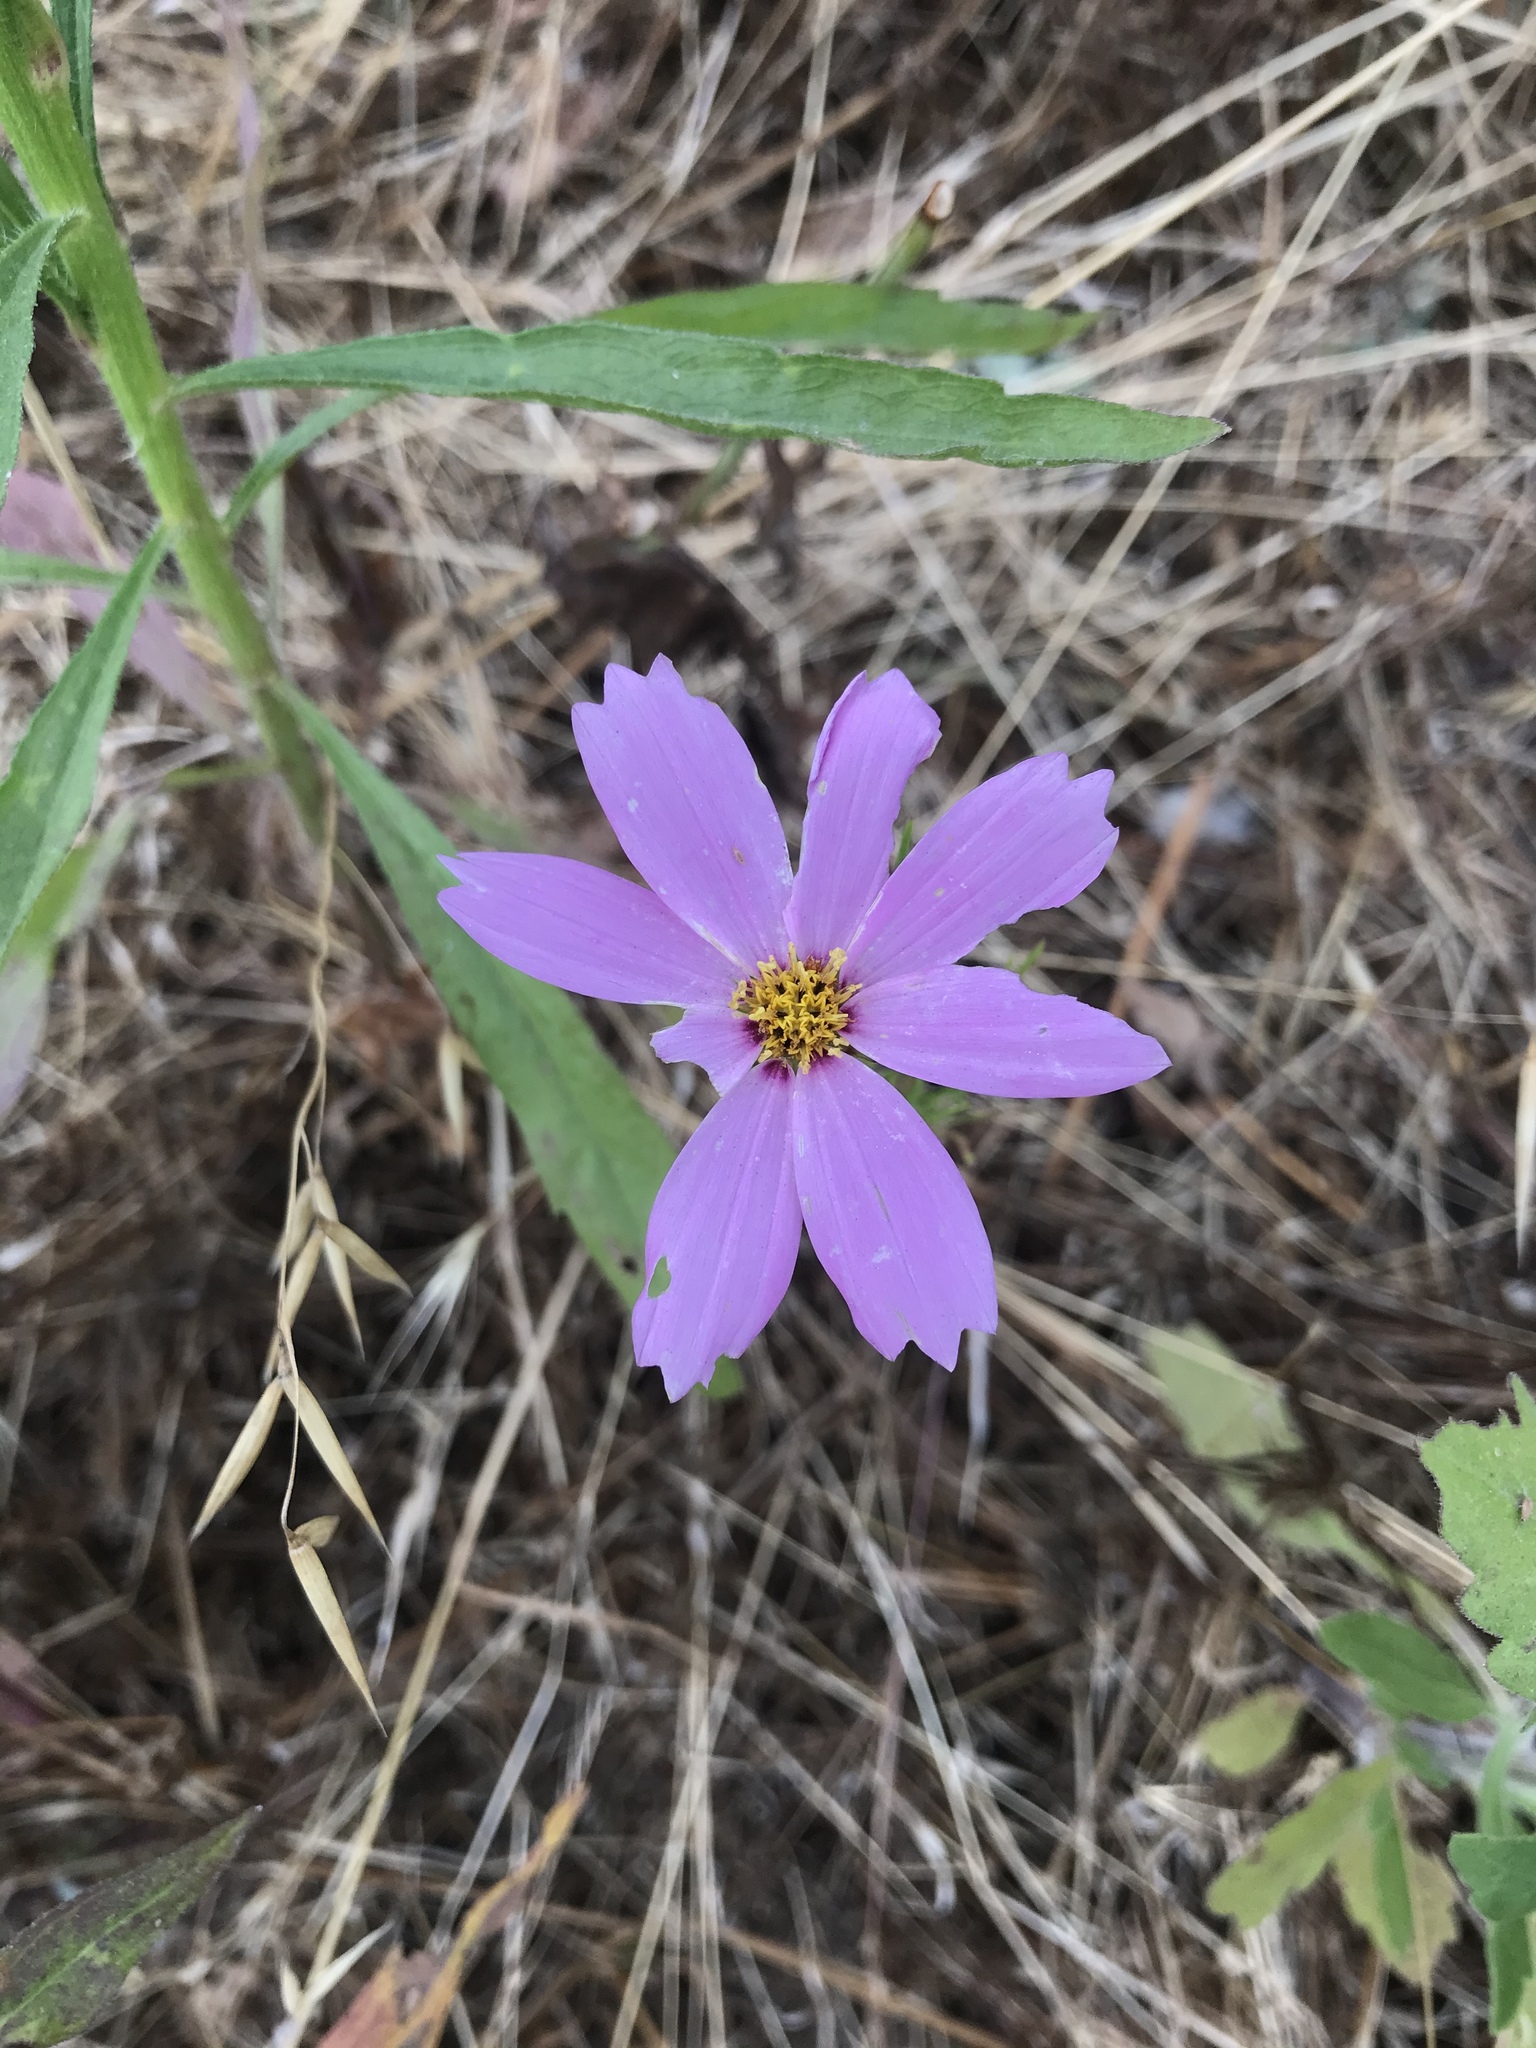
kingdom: Plantae
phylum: Tracheophyta
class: Magnoliopsida
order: Asterales
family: Asteraceae
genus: Cosmos
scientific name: Cosmos bipinnatus
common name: Garden cosmos
